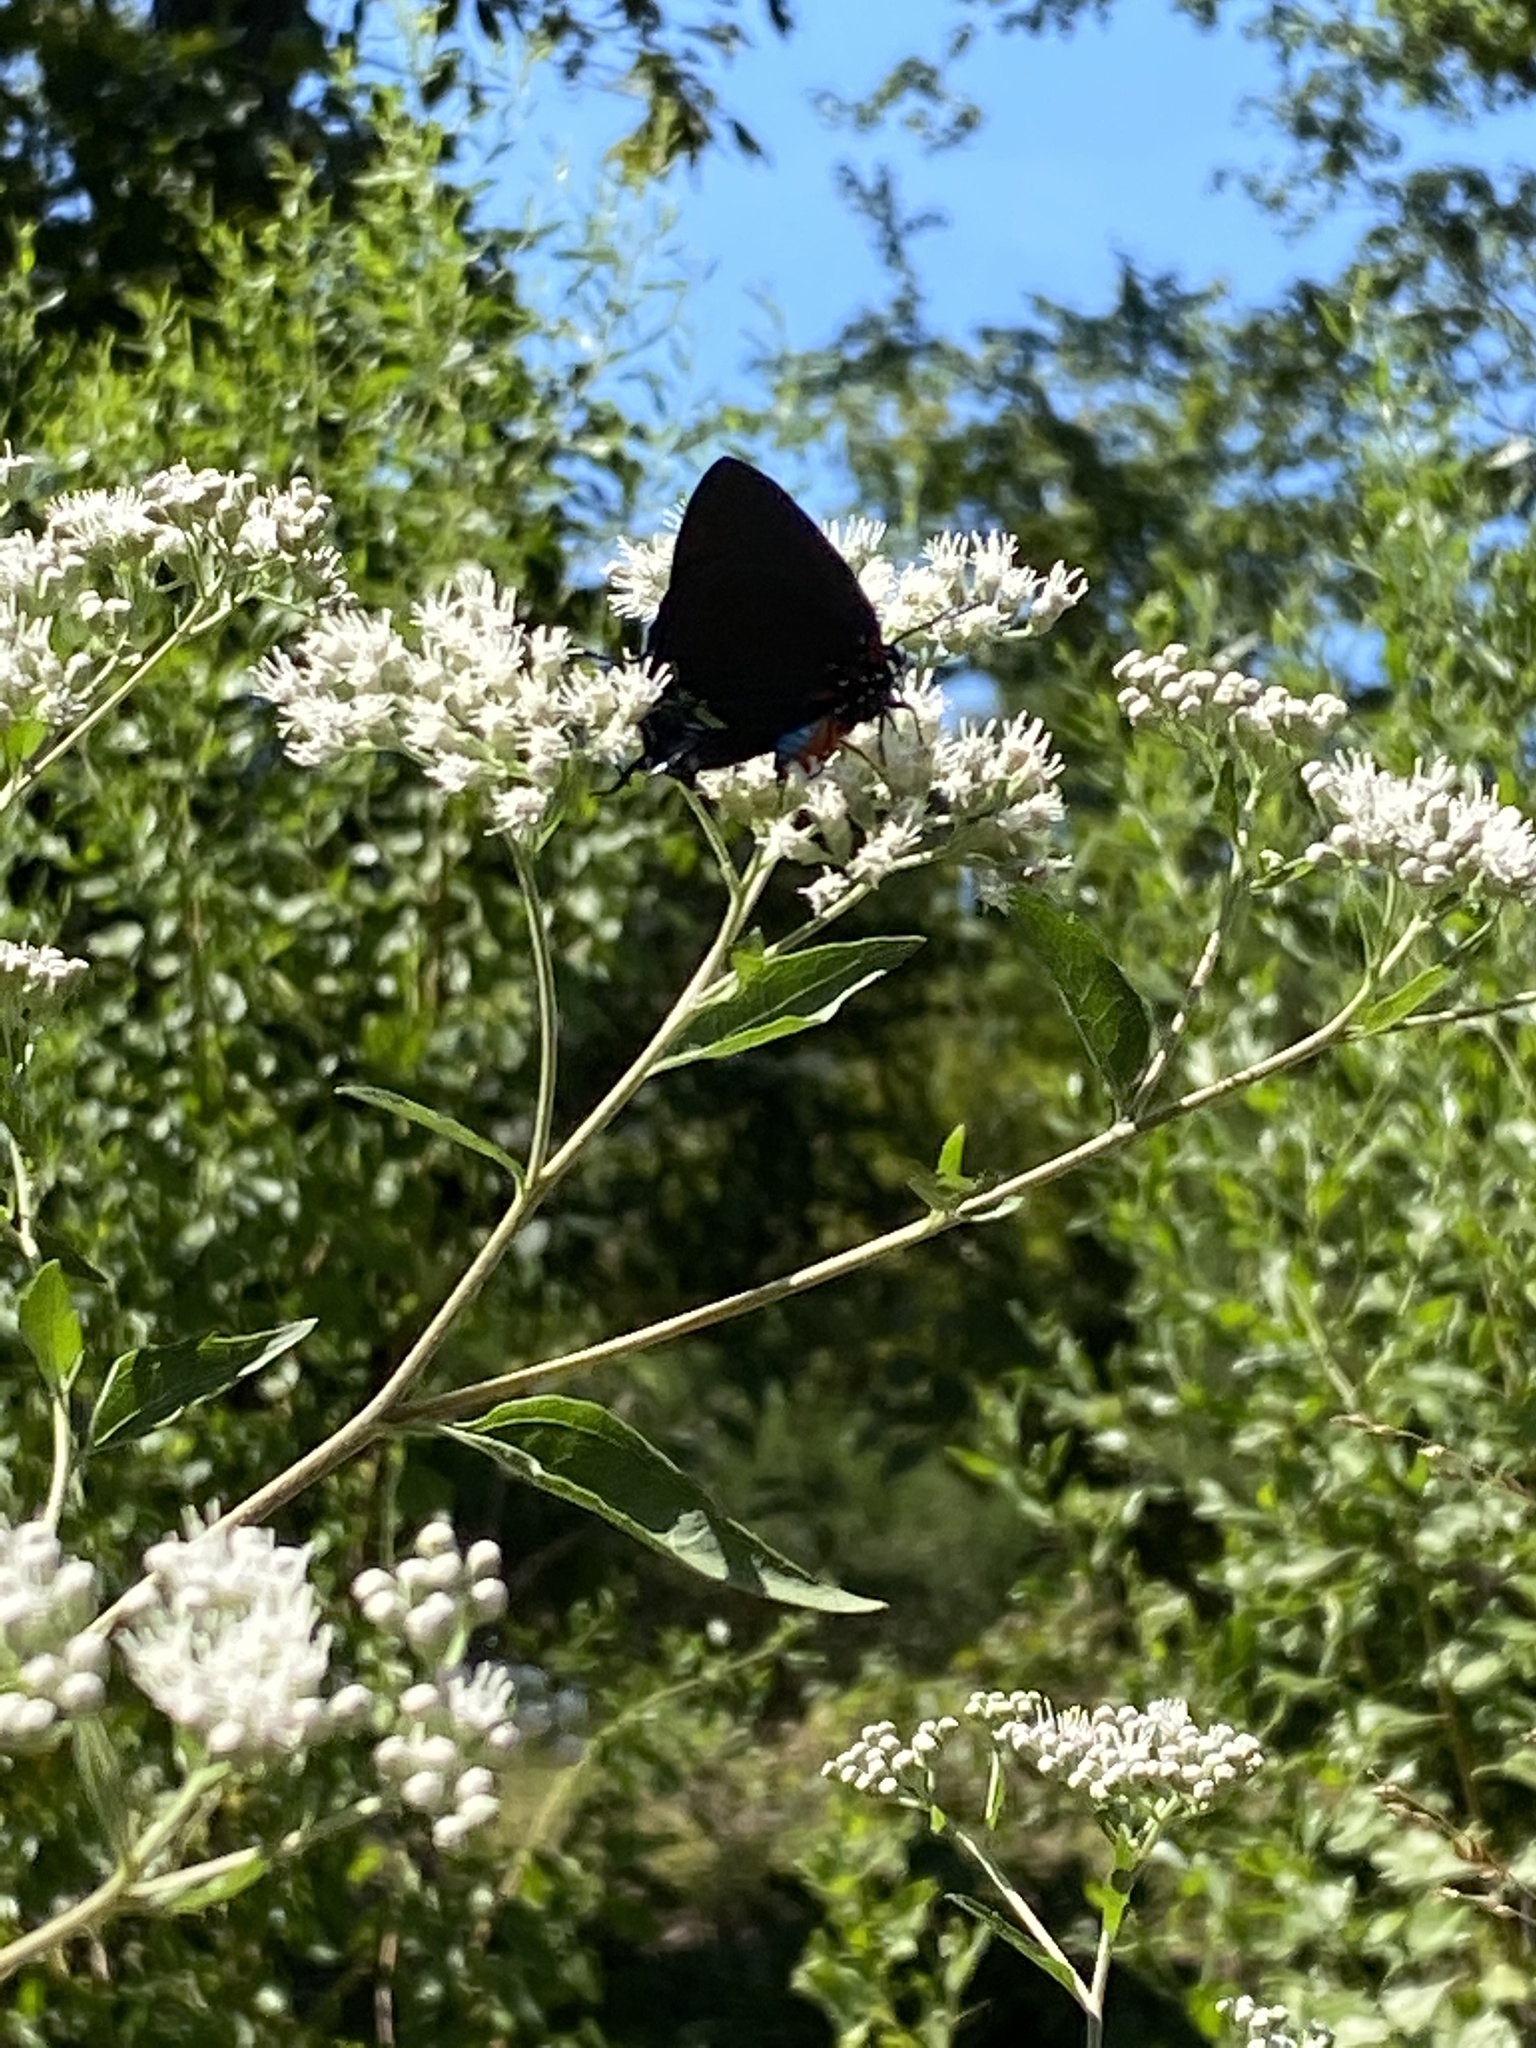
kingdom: Animalia
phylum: Arthropoda
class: Insecta
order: Lepidoptera
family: Lycaenidae
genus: Atlides
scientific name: Atlides halesus
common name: Great purple hairstreak
